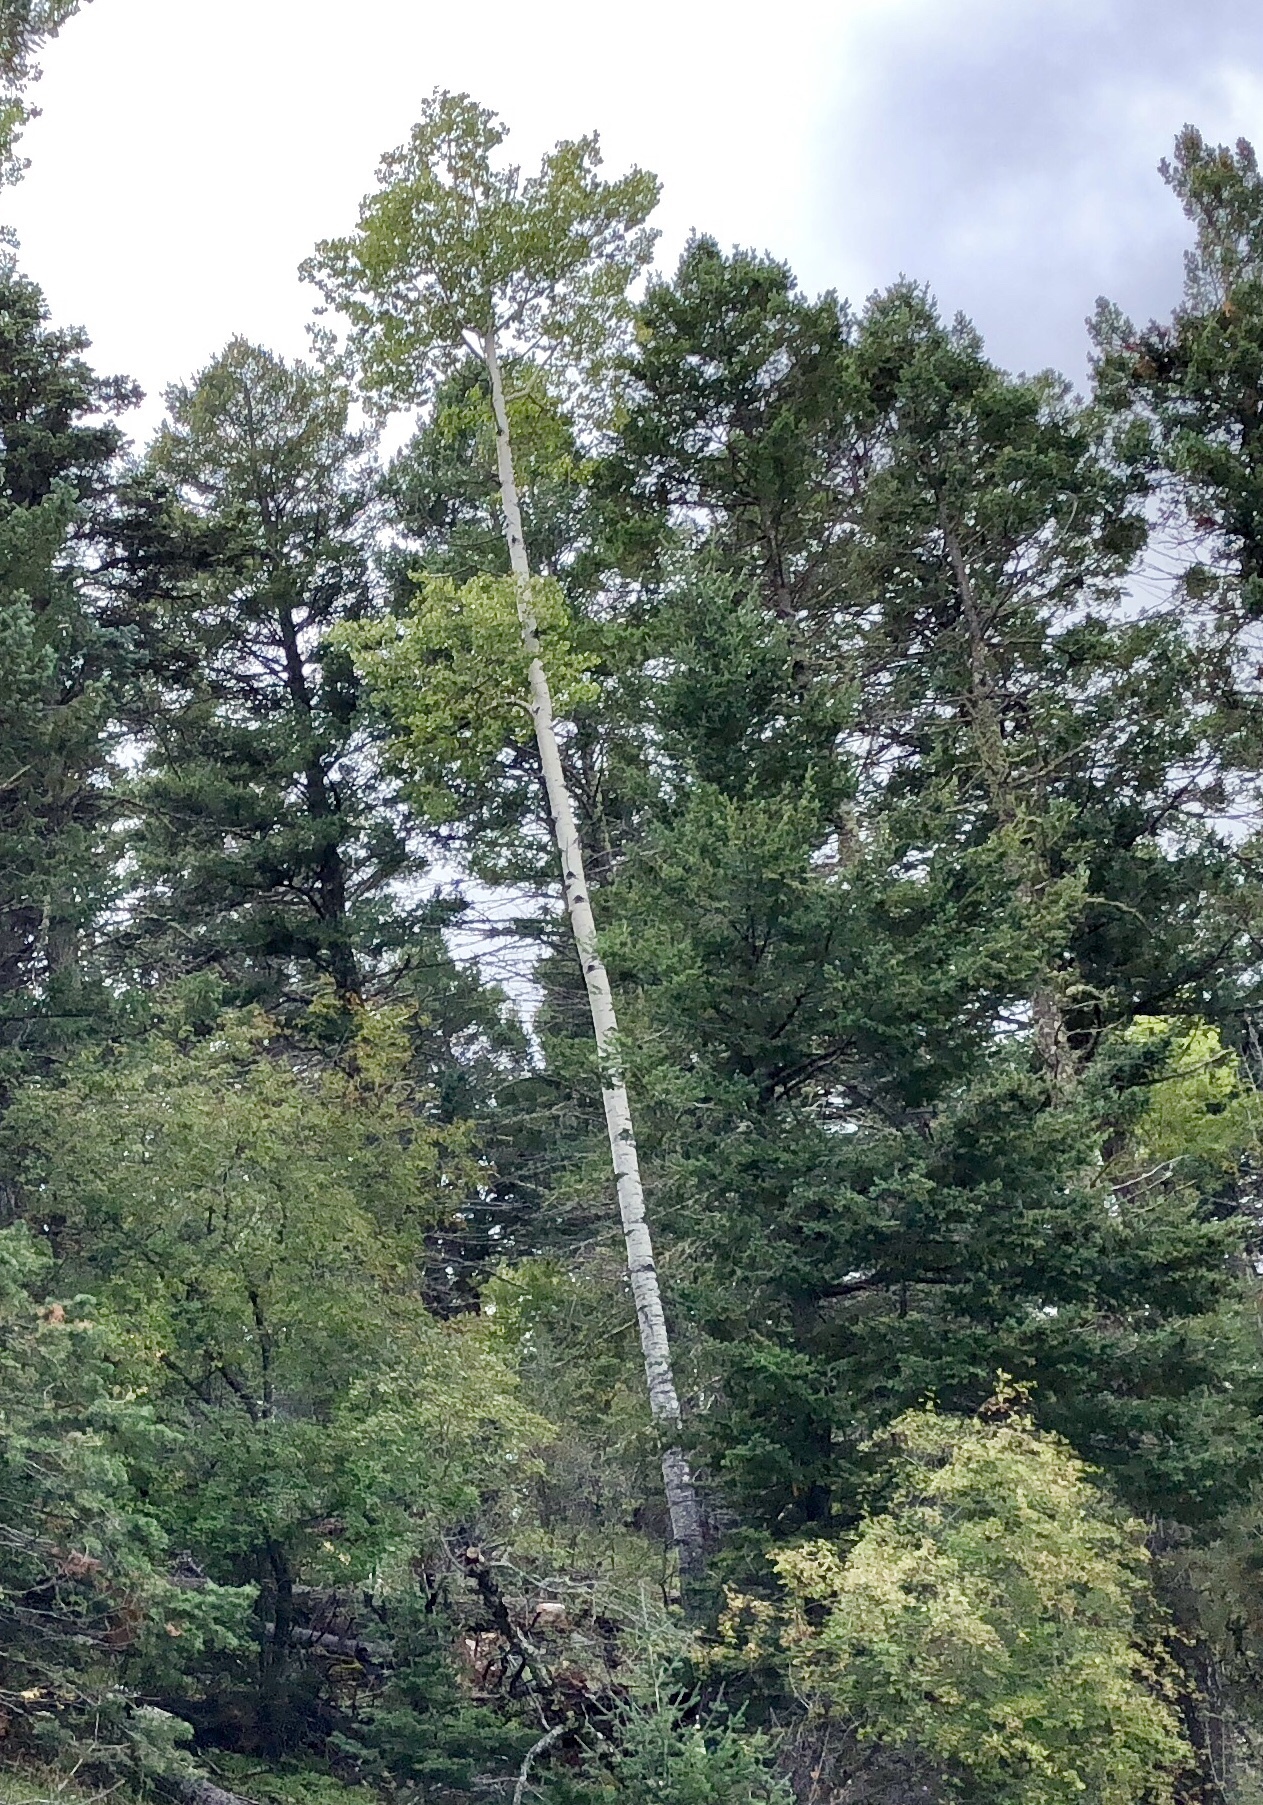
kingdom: Plantae
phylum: Tracheophyta
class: Magnoliopsida
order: Malpighiales
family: Salicaceae
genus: Populus
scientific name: Populus tremuloides
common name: Quaking aspen
